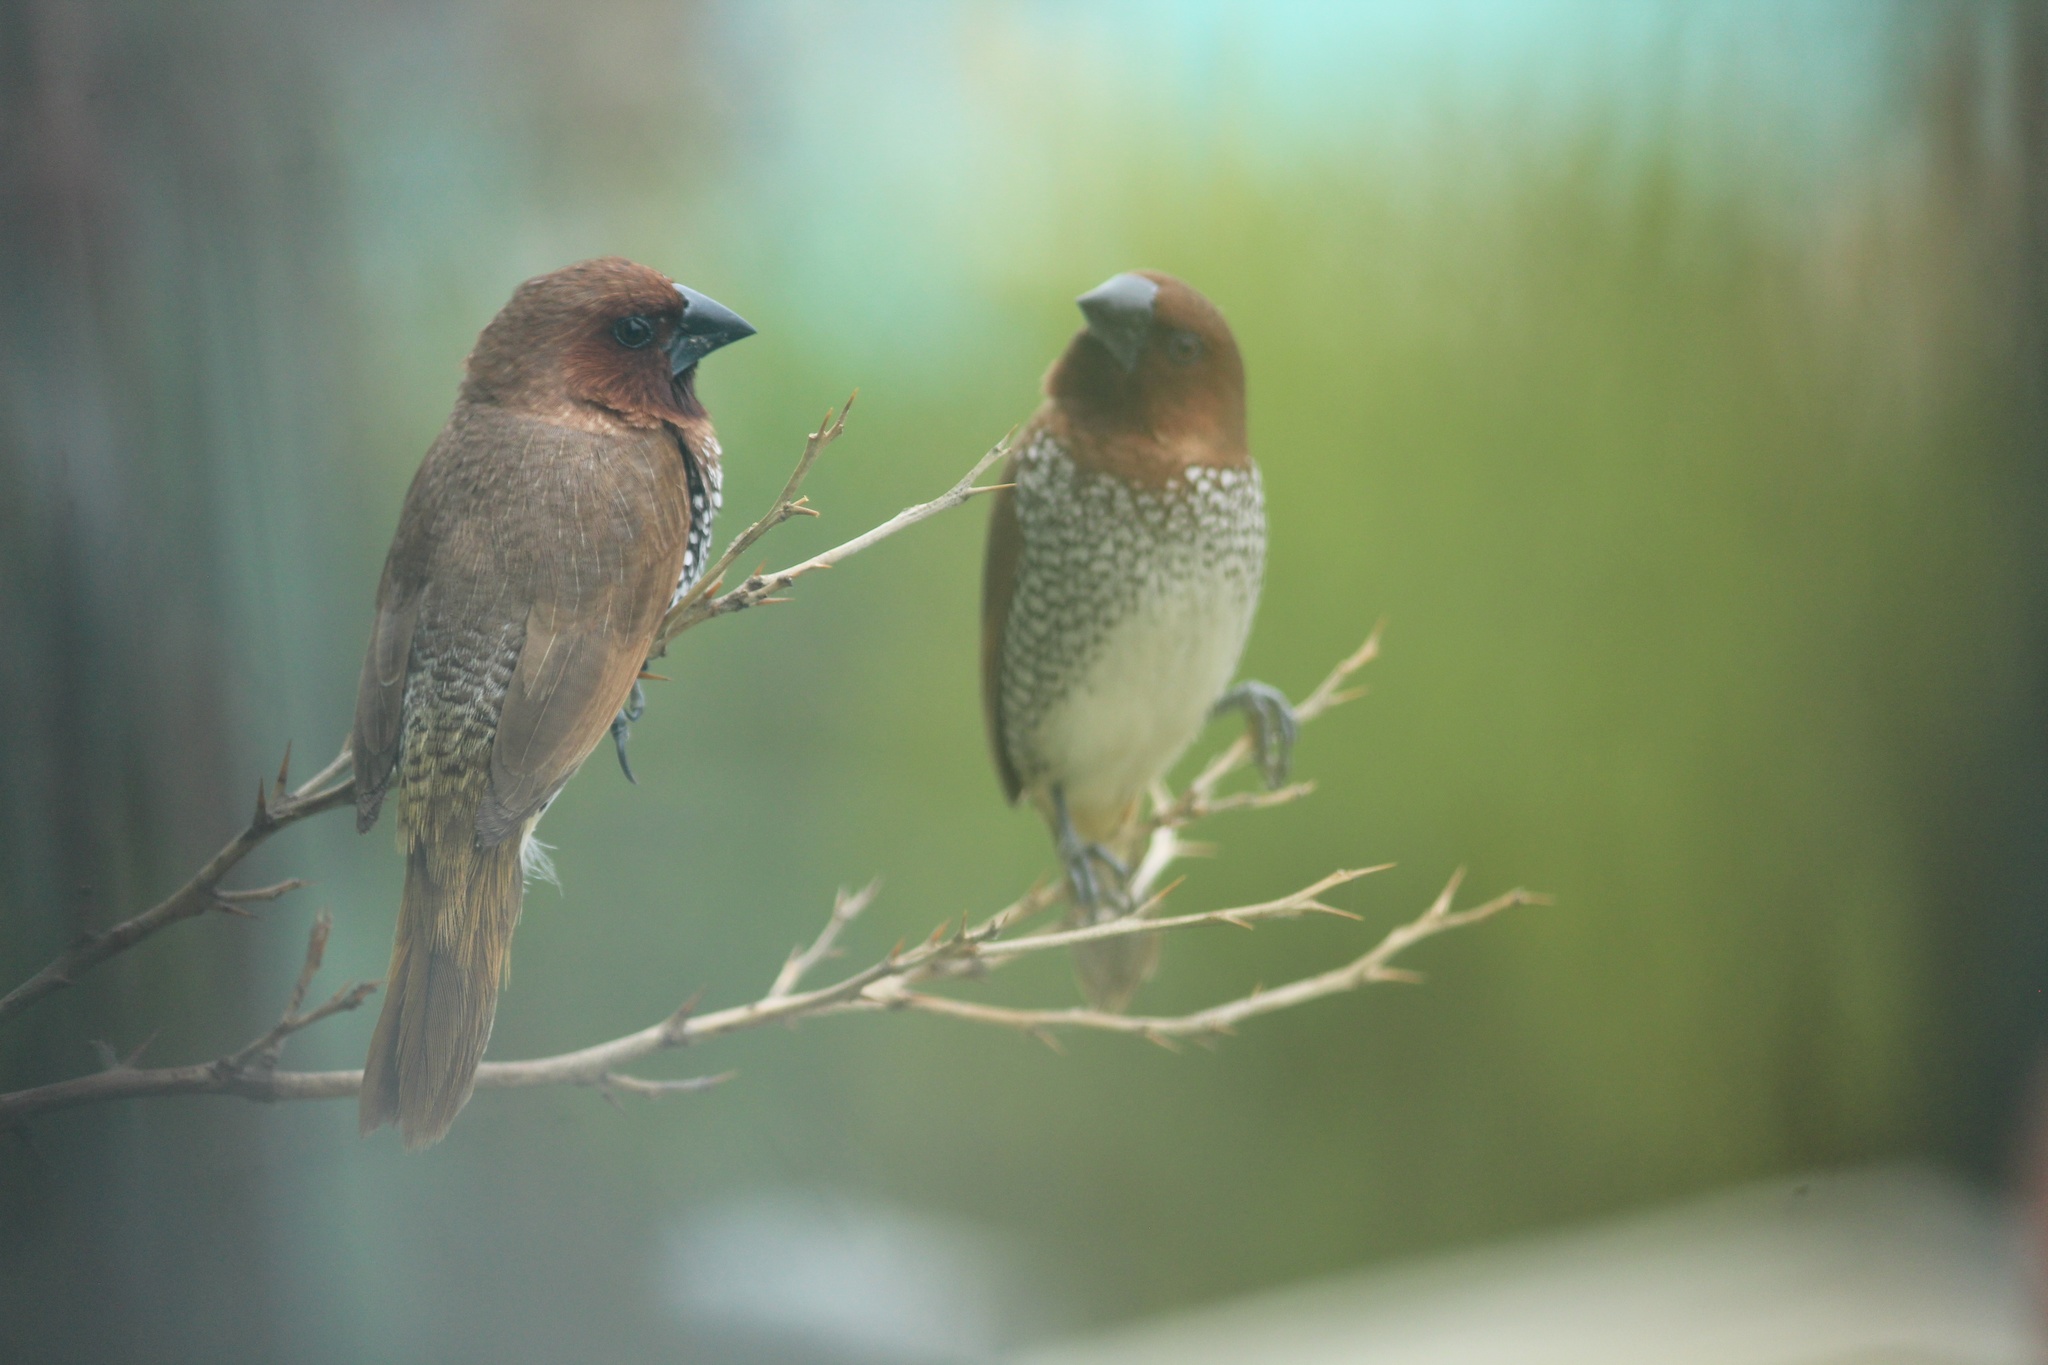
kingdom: Animalia
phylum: Chordata
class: Aves
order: Passeriformes
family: Estrildidae
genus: Lonchura
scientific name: Lonchura punctulata
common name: Scaly-breasted munia
